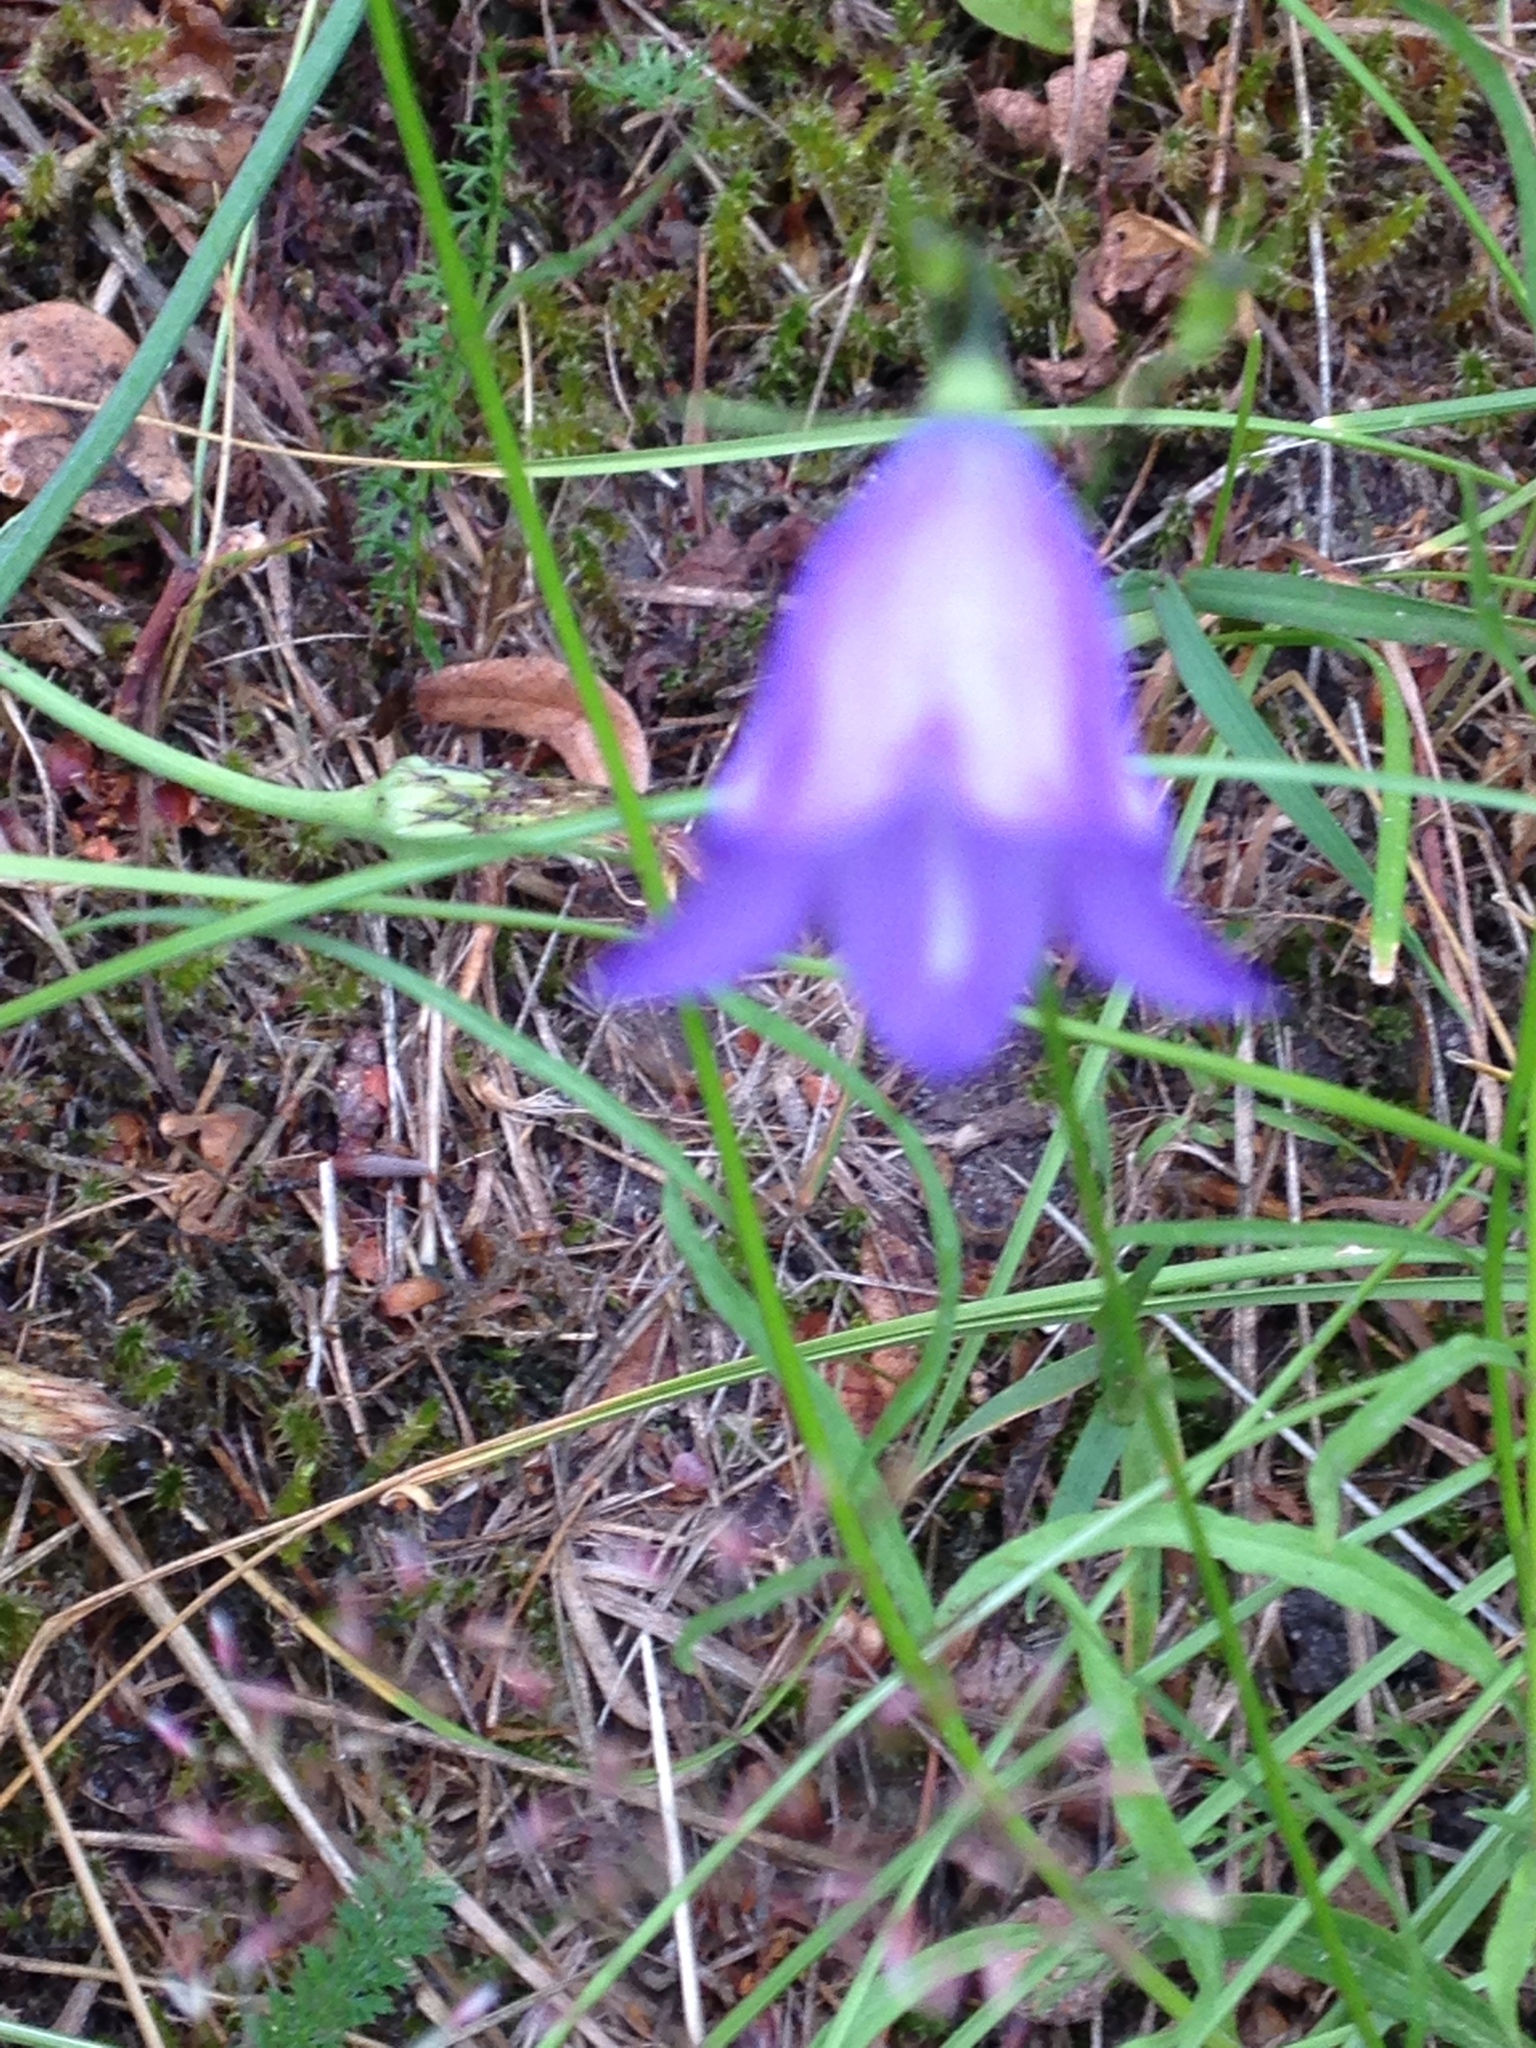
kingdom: Plantae
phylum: Tracheophyta
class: Magnoliopsida
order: Asterales
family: Campanulaceae
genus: Campanula
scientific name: Campanula rotundifolia
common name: Harebell
